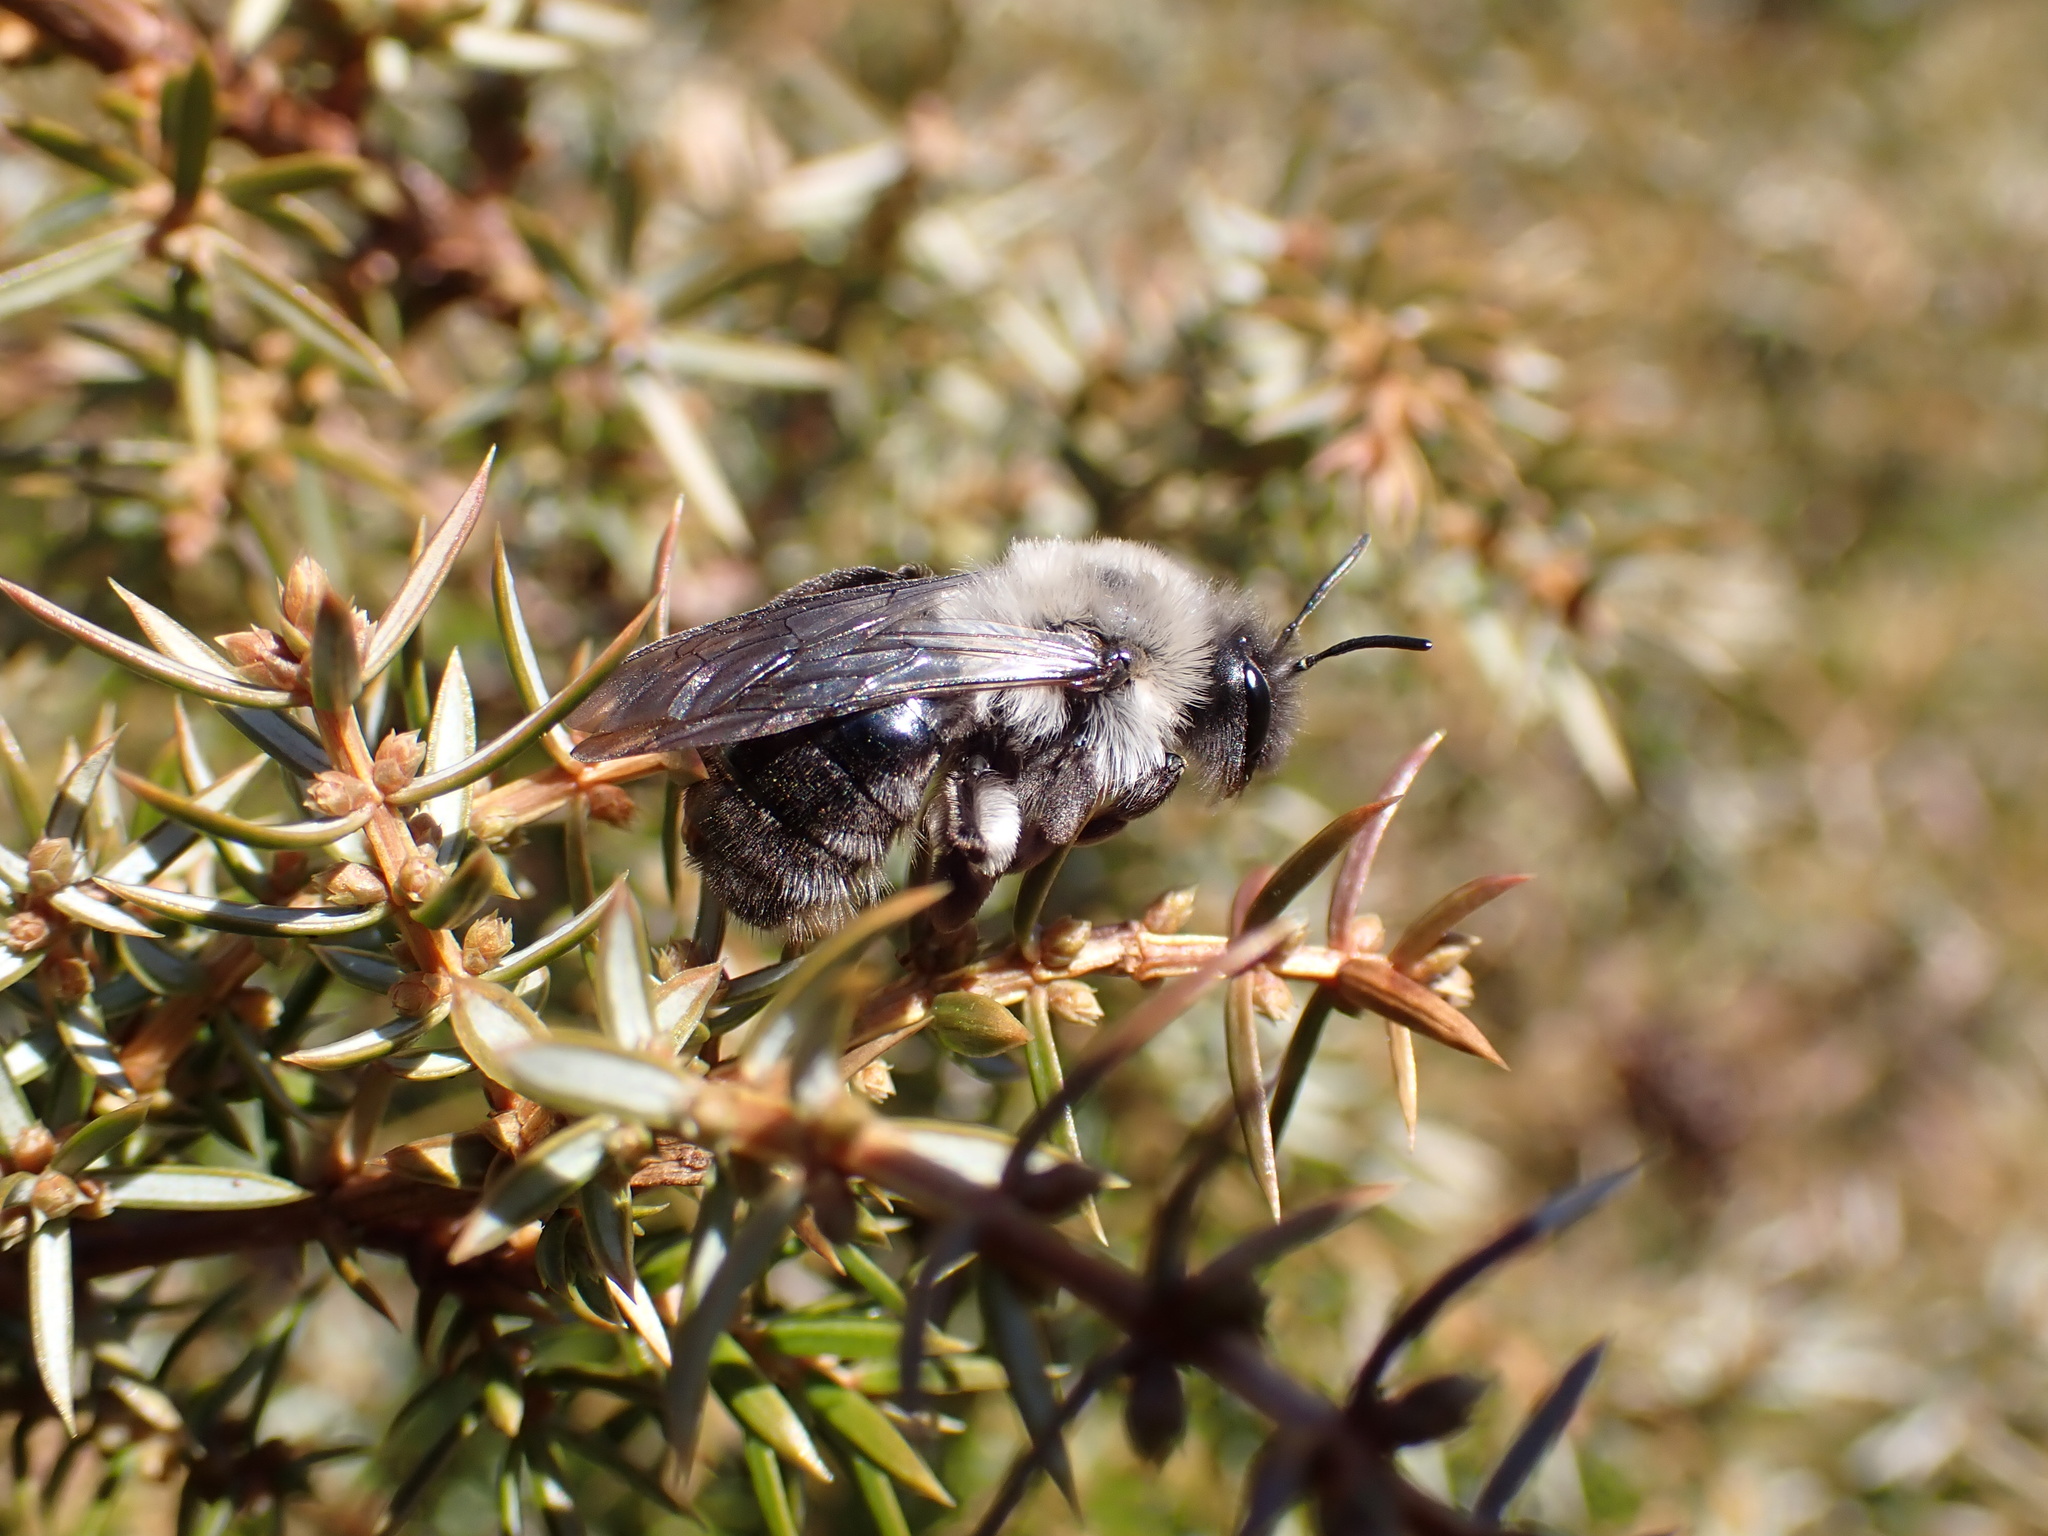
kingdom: Animalia
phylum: Arthropoda
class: Insecta
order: Hymenoptera
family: Andrenidae
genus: Andrena
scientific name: Andrena vaga
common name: Grey-backed mining bee
